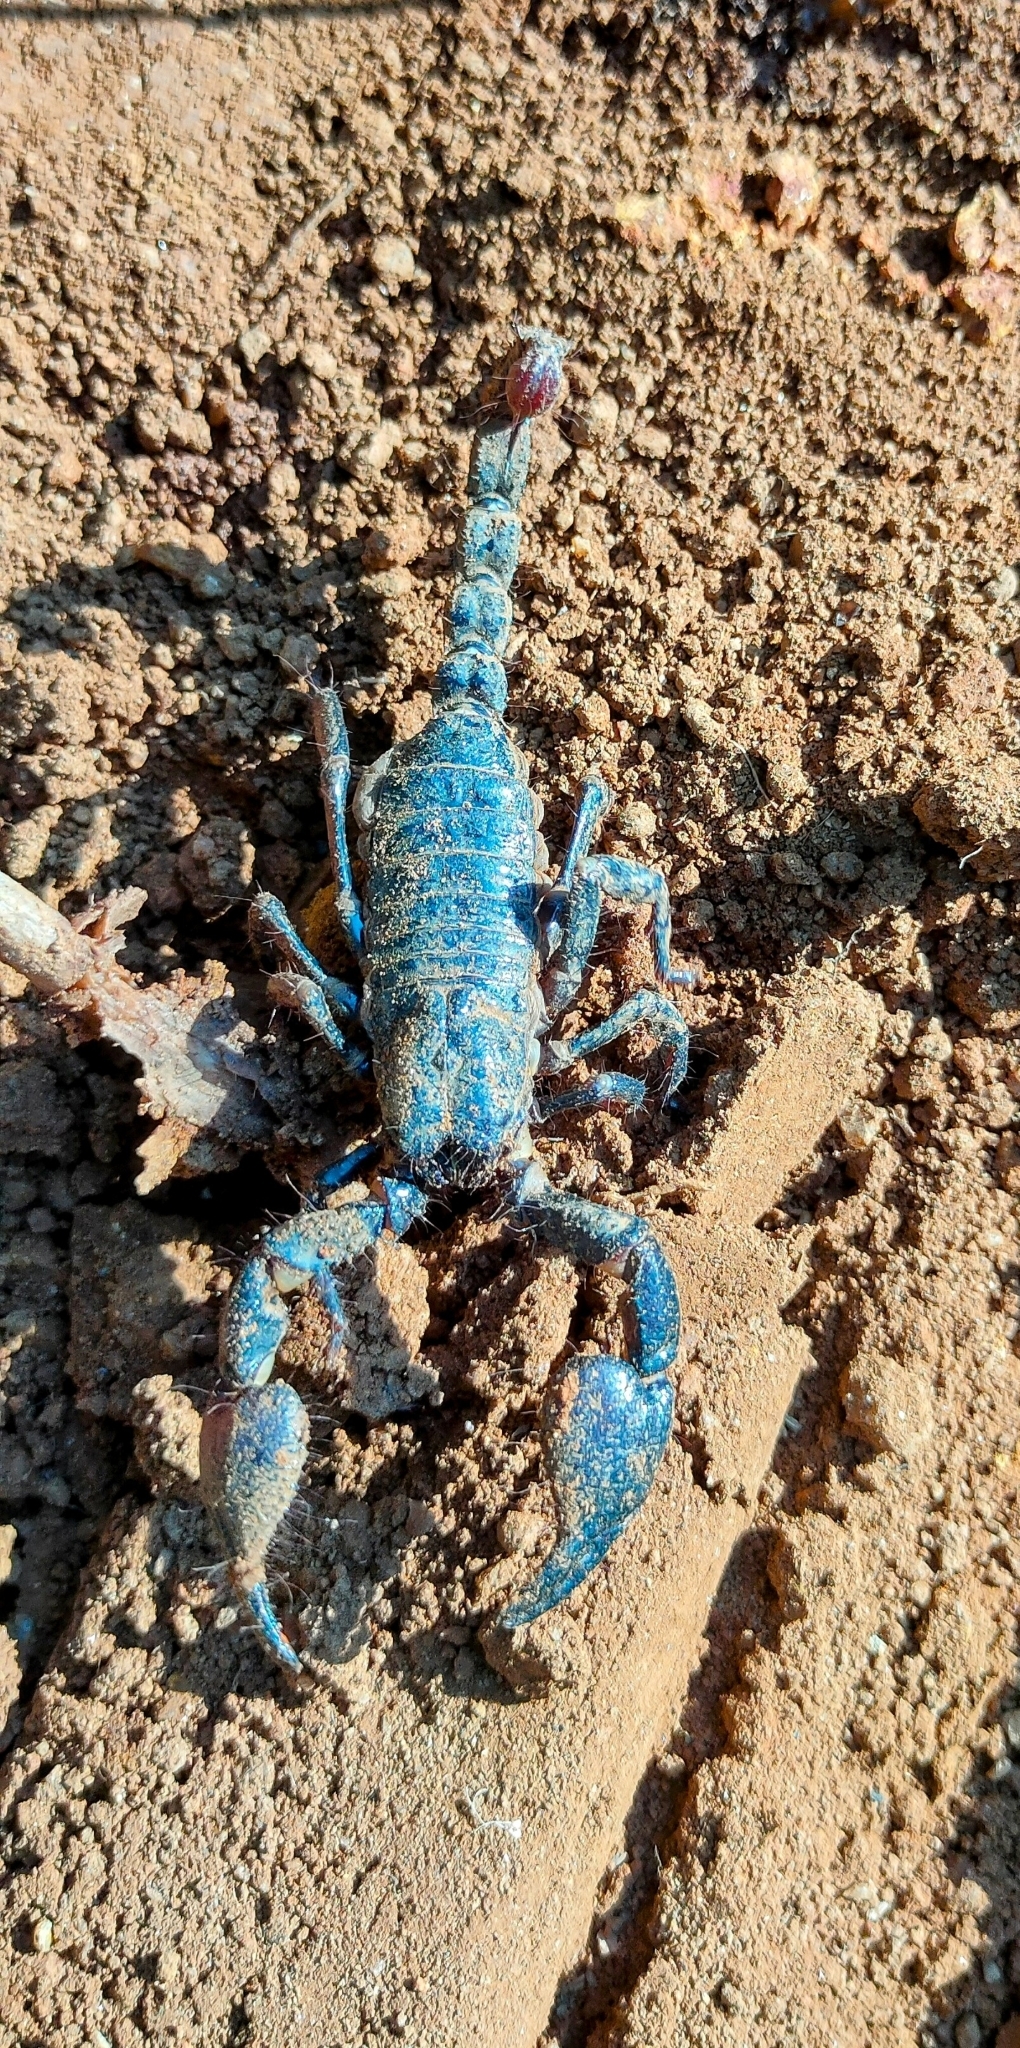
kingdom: Animalia
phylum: Arthropoda
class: Arachnida
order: Scorpiones
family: Scorpionidae
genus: Sahyadrimetrus
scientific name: Sahyadrimetrus mathewi
